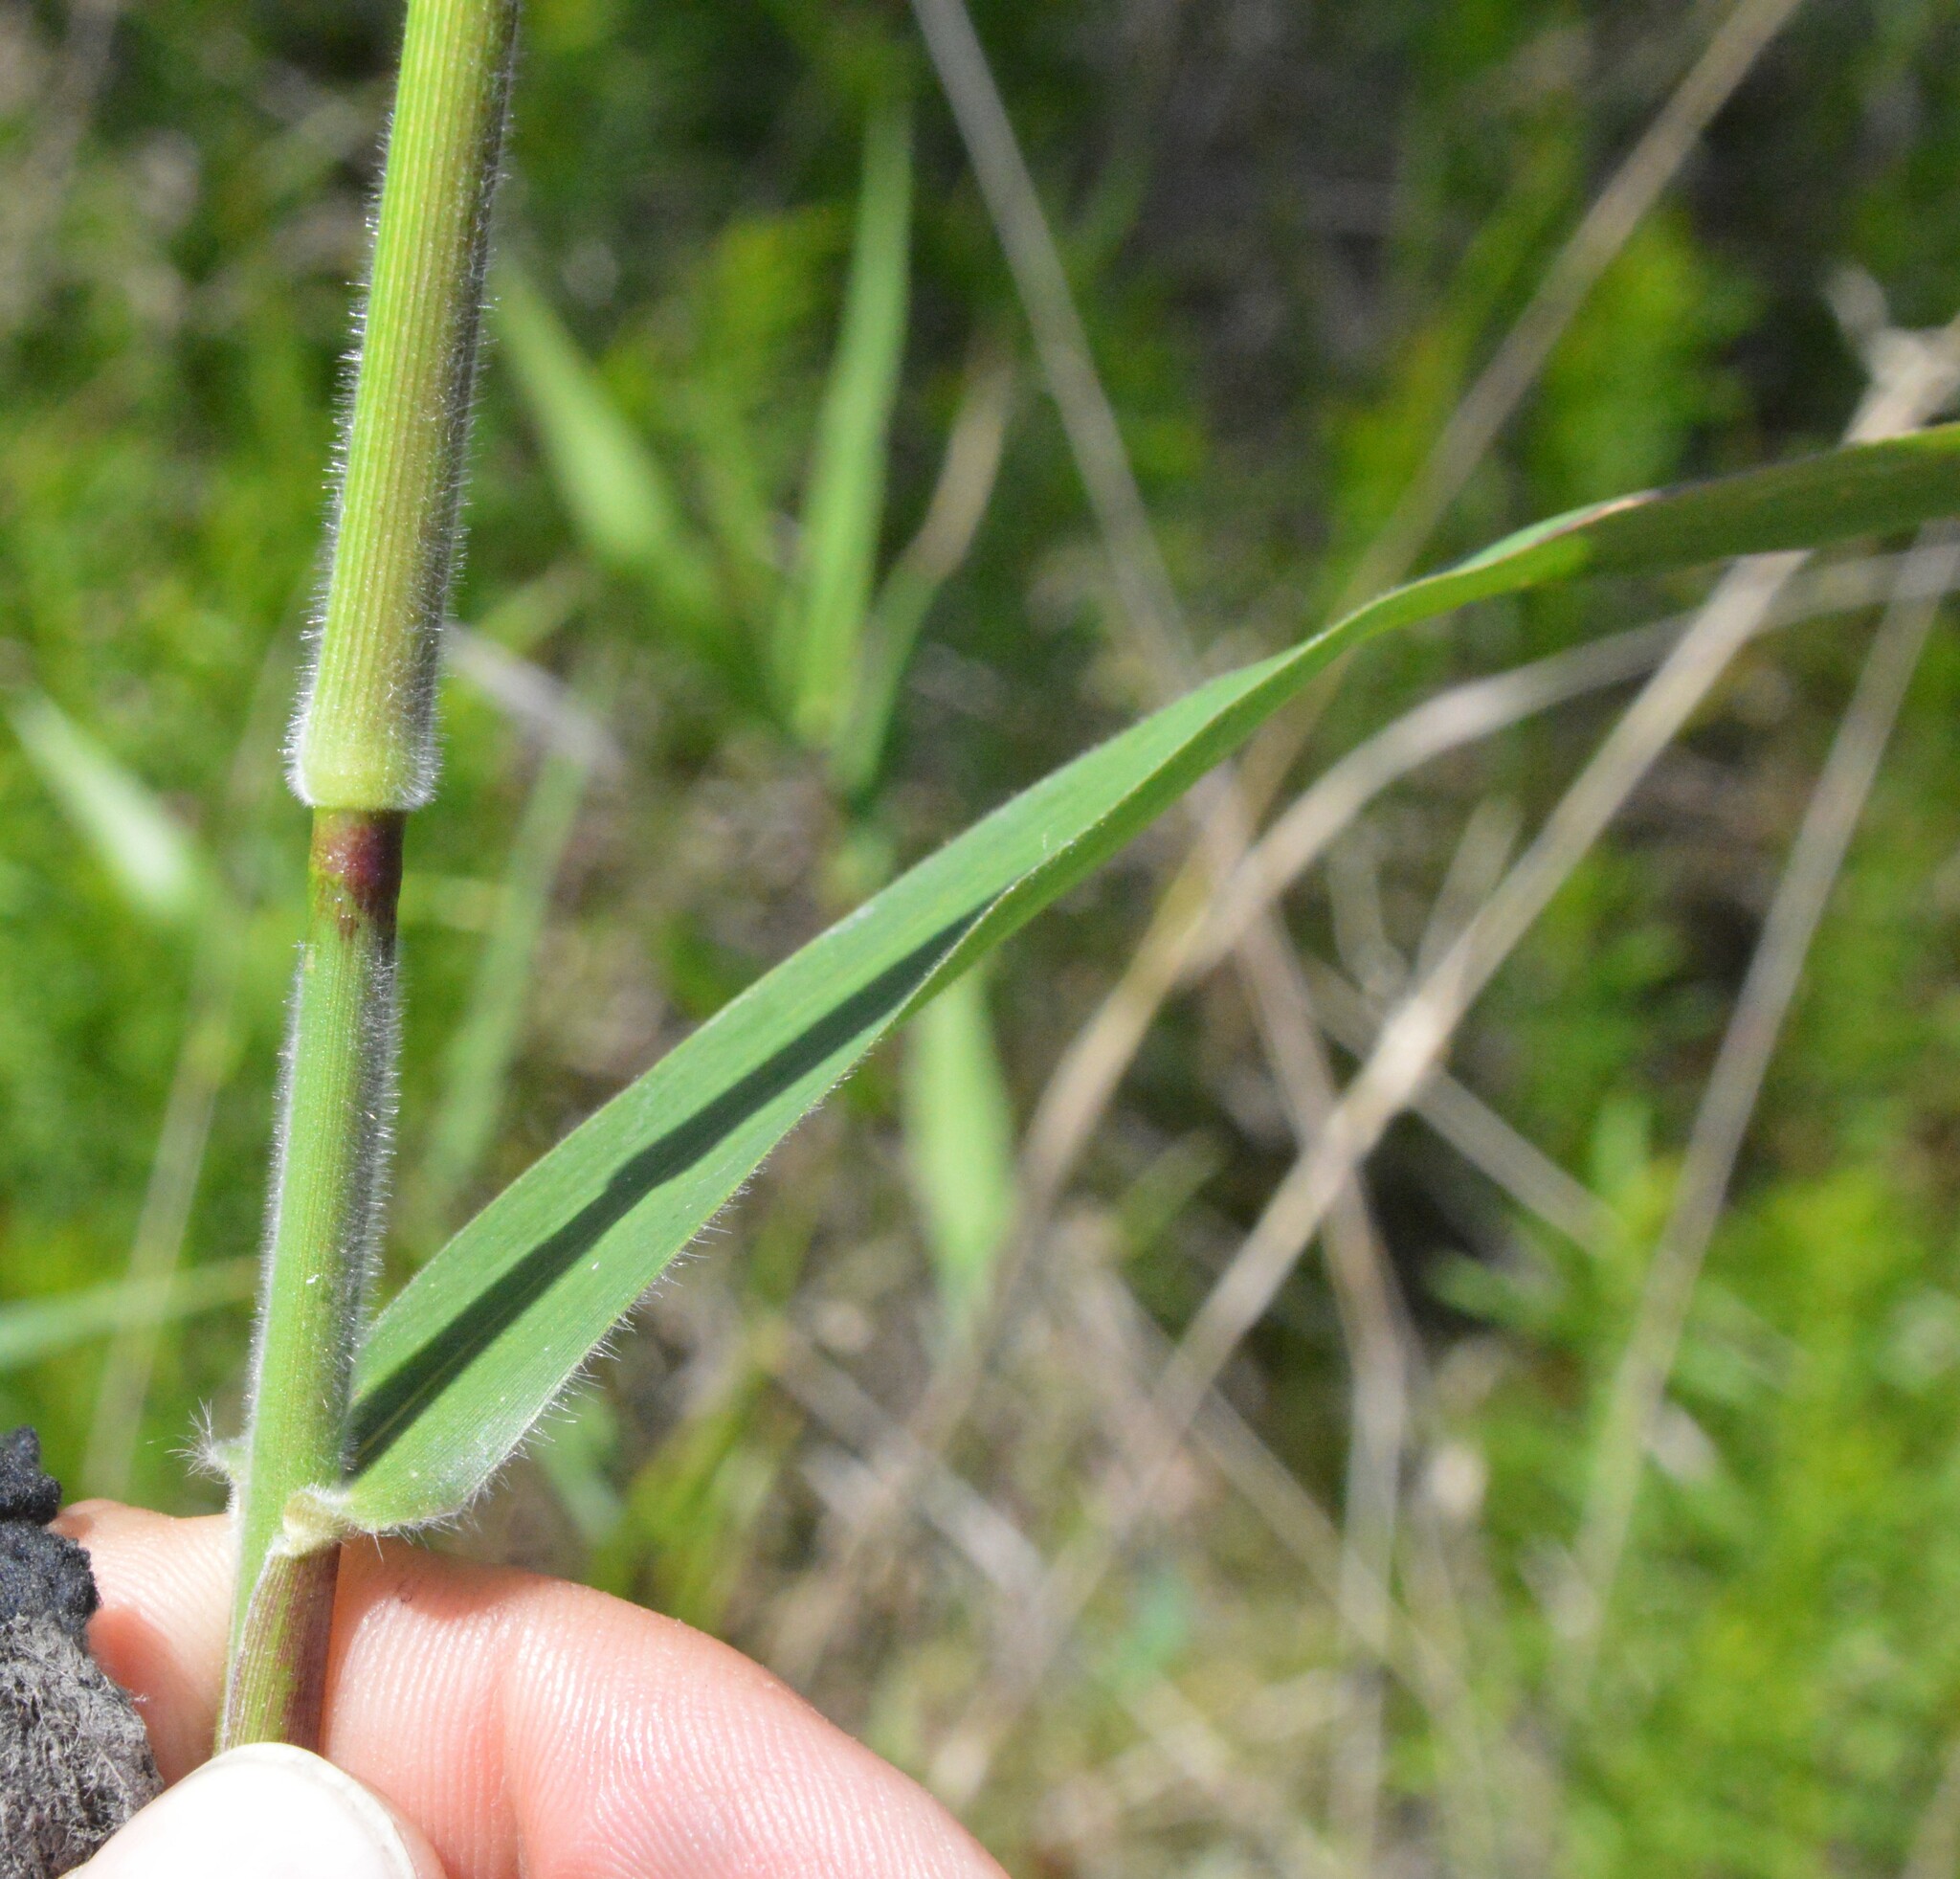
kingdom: Plantae
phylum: Tracheophyta
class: Liliopsida
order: Poales
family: Poaceae
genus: Dichanthelium
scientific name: Dichanthelium scoparium
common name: Velvety panic grass
